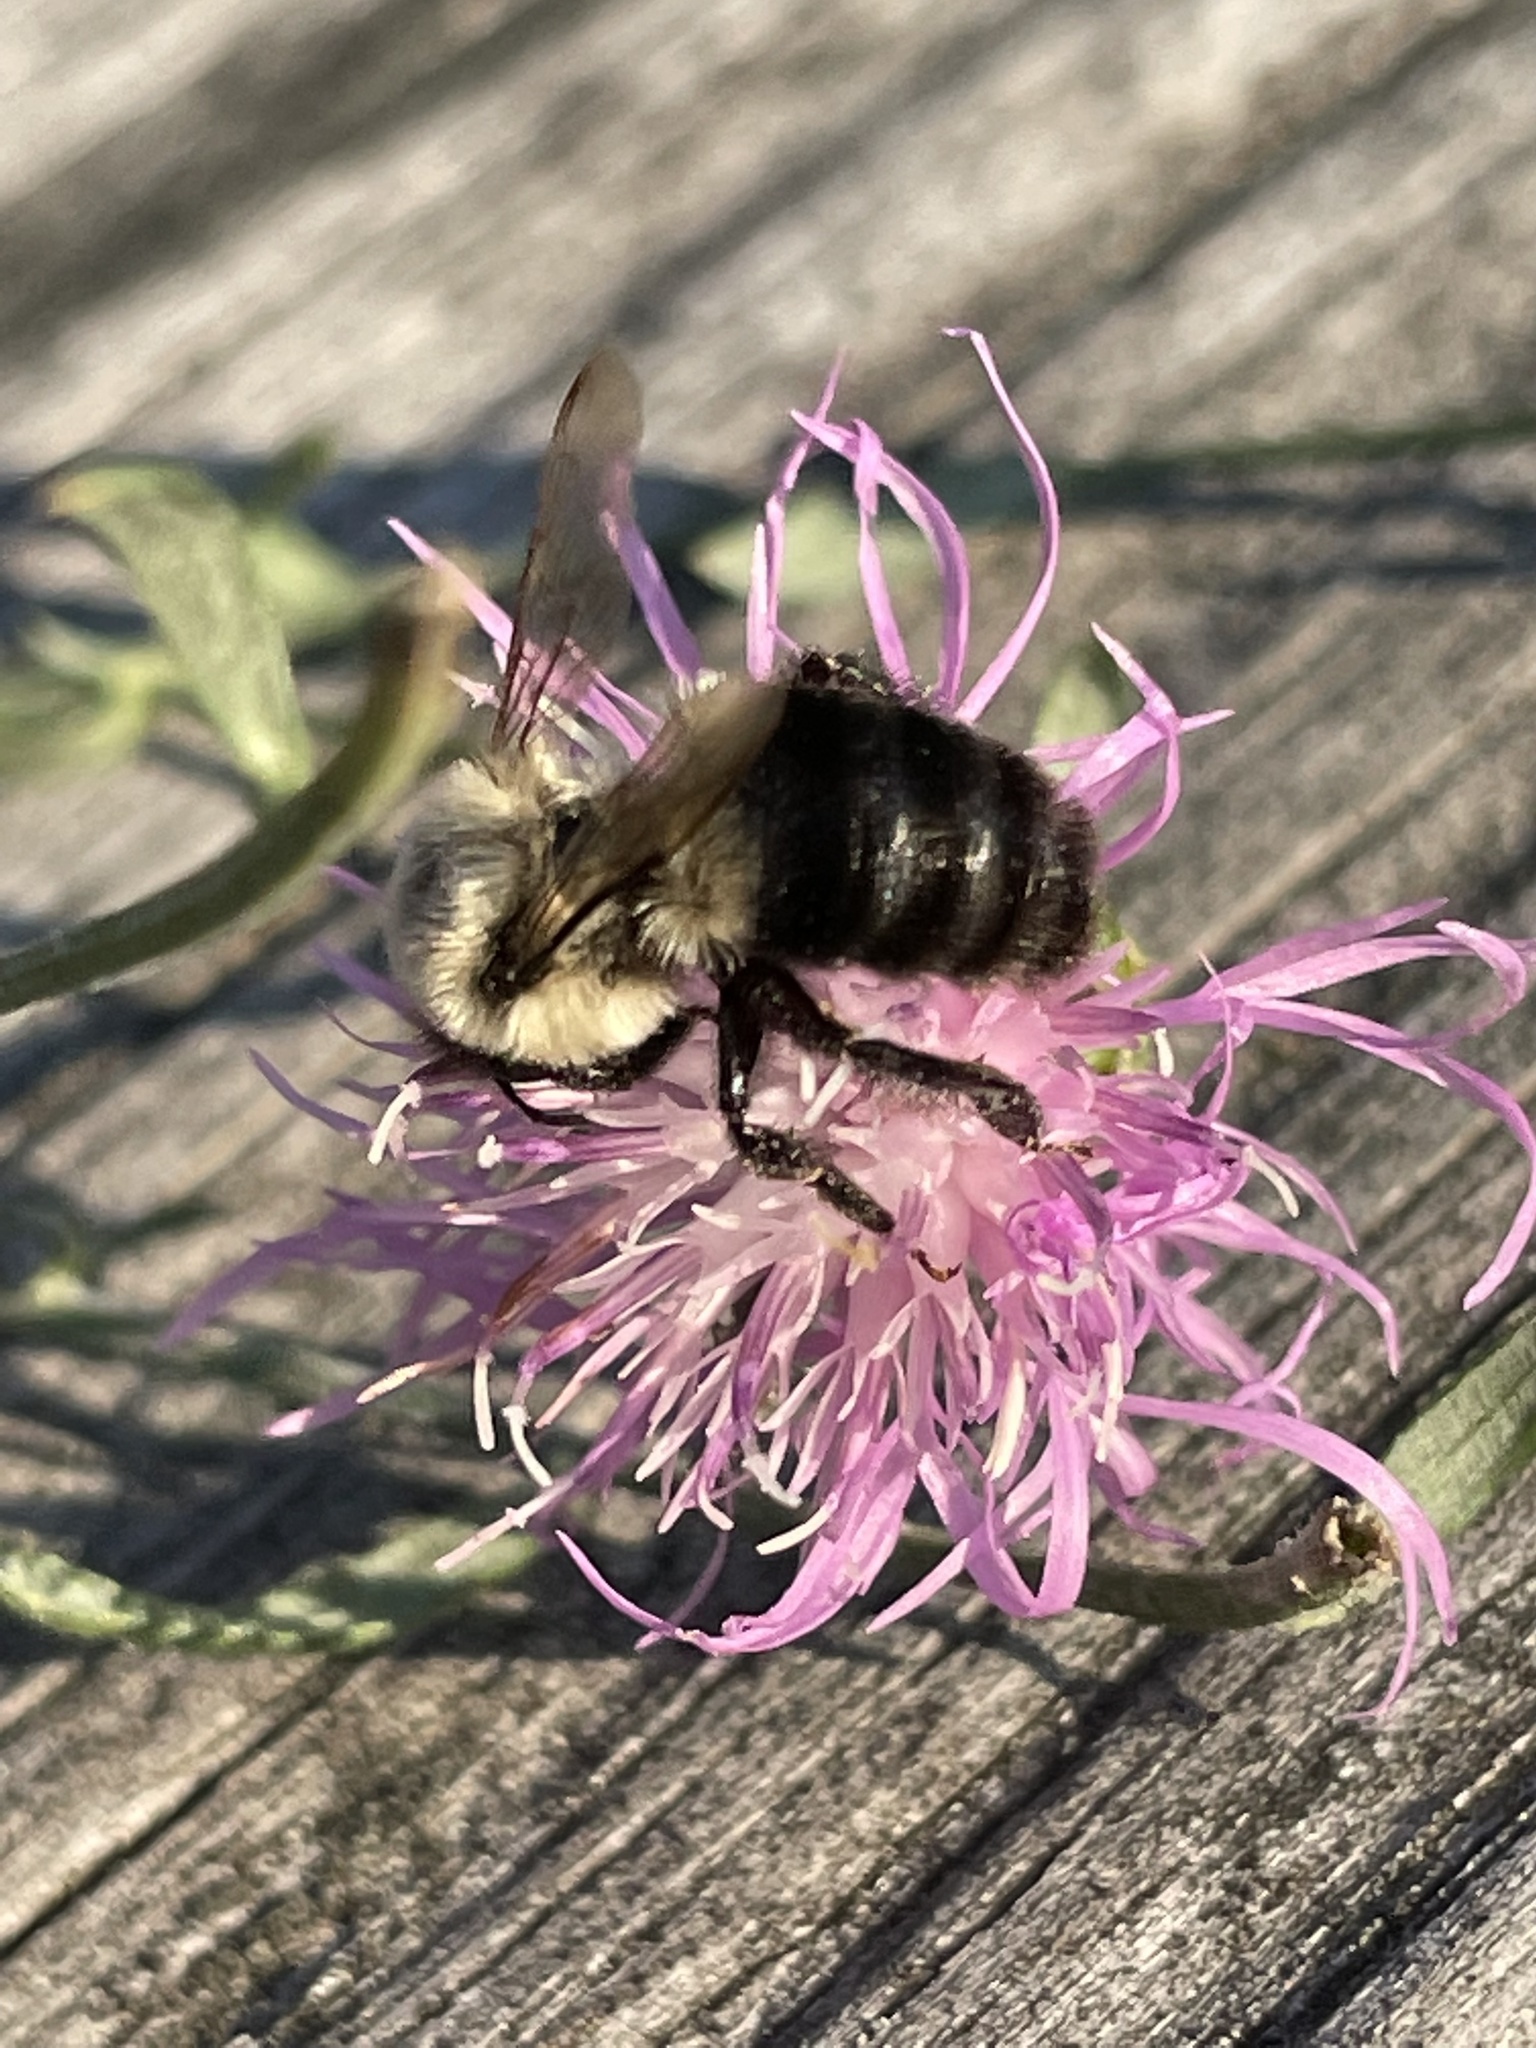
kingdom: Animalia
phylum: Arthropoda
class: Insecta
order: Hymenoptera
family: Apidae
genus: Bombus
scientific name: Bombus impatiens
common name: Common eastern bumble bee
